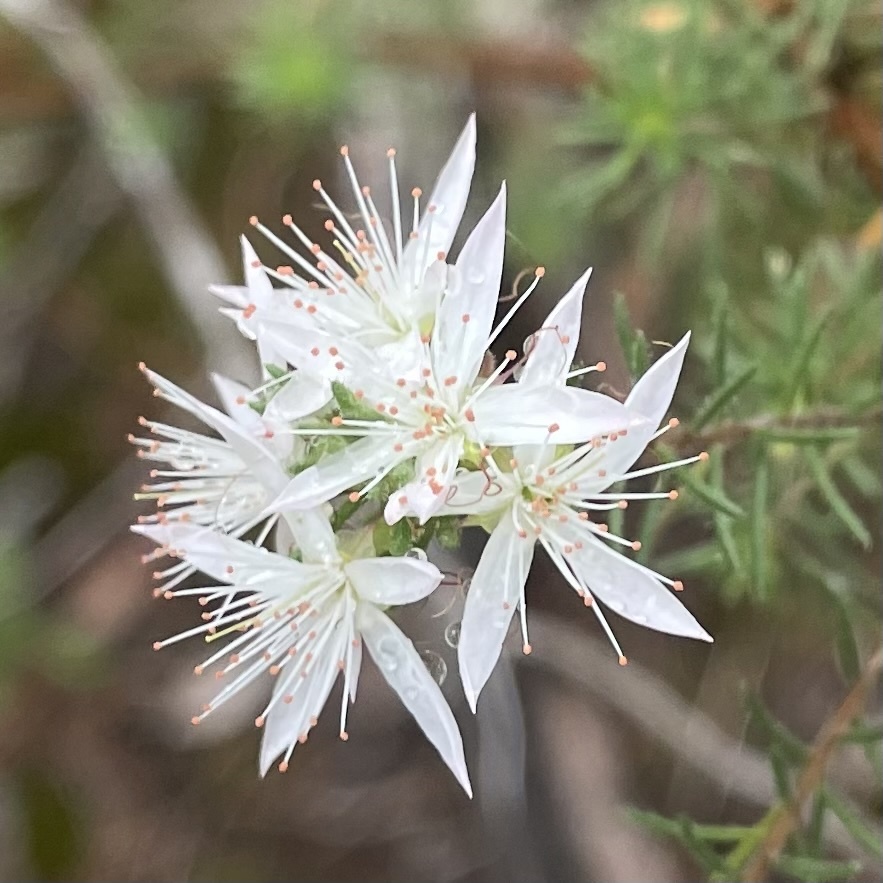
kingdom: Plantae
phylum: Tracheophyta
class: Magnoliopsida
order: Myrtales
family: Myrtaceae
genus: Calytrix
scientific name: Calytrix tetragona
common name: Common fringe myrtle
